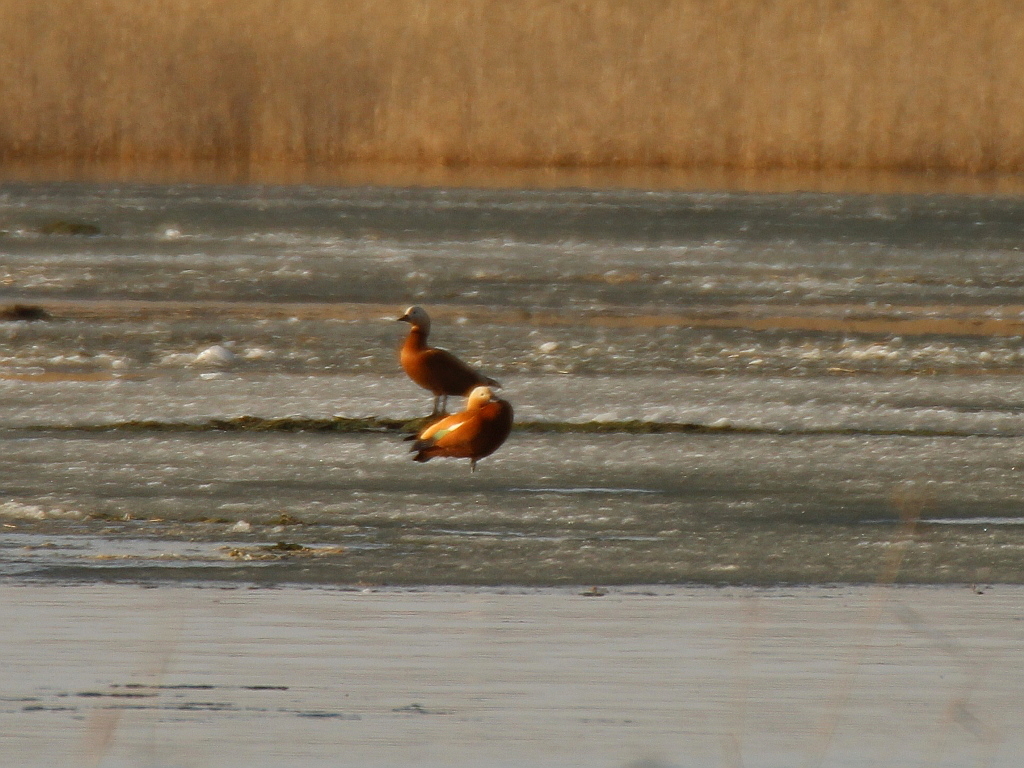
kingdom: Animalia
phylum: Chordata
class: Aves
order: Anseriformes
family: Anatidae
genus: Tadorna
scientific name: Tadorna ferruginea
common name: Ruddy shelduck
